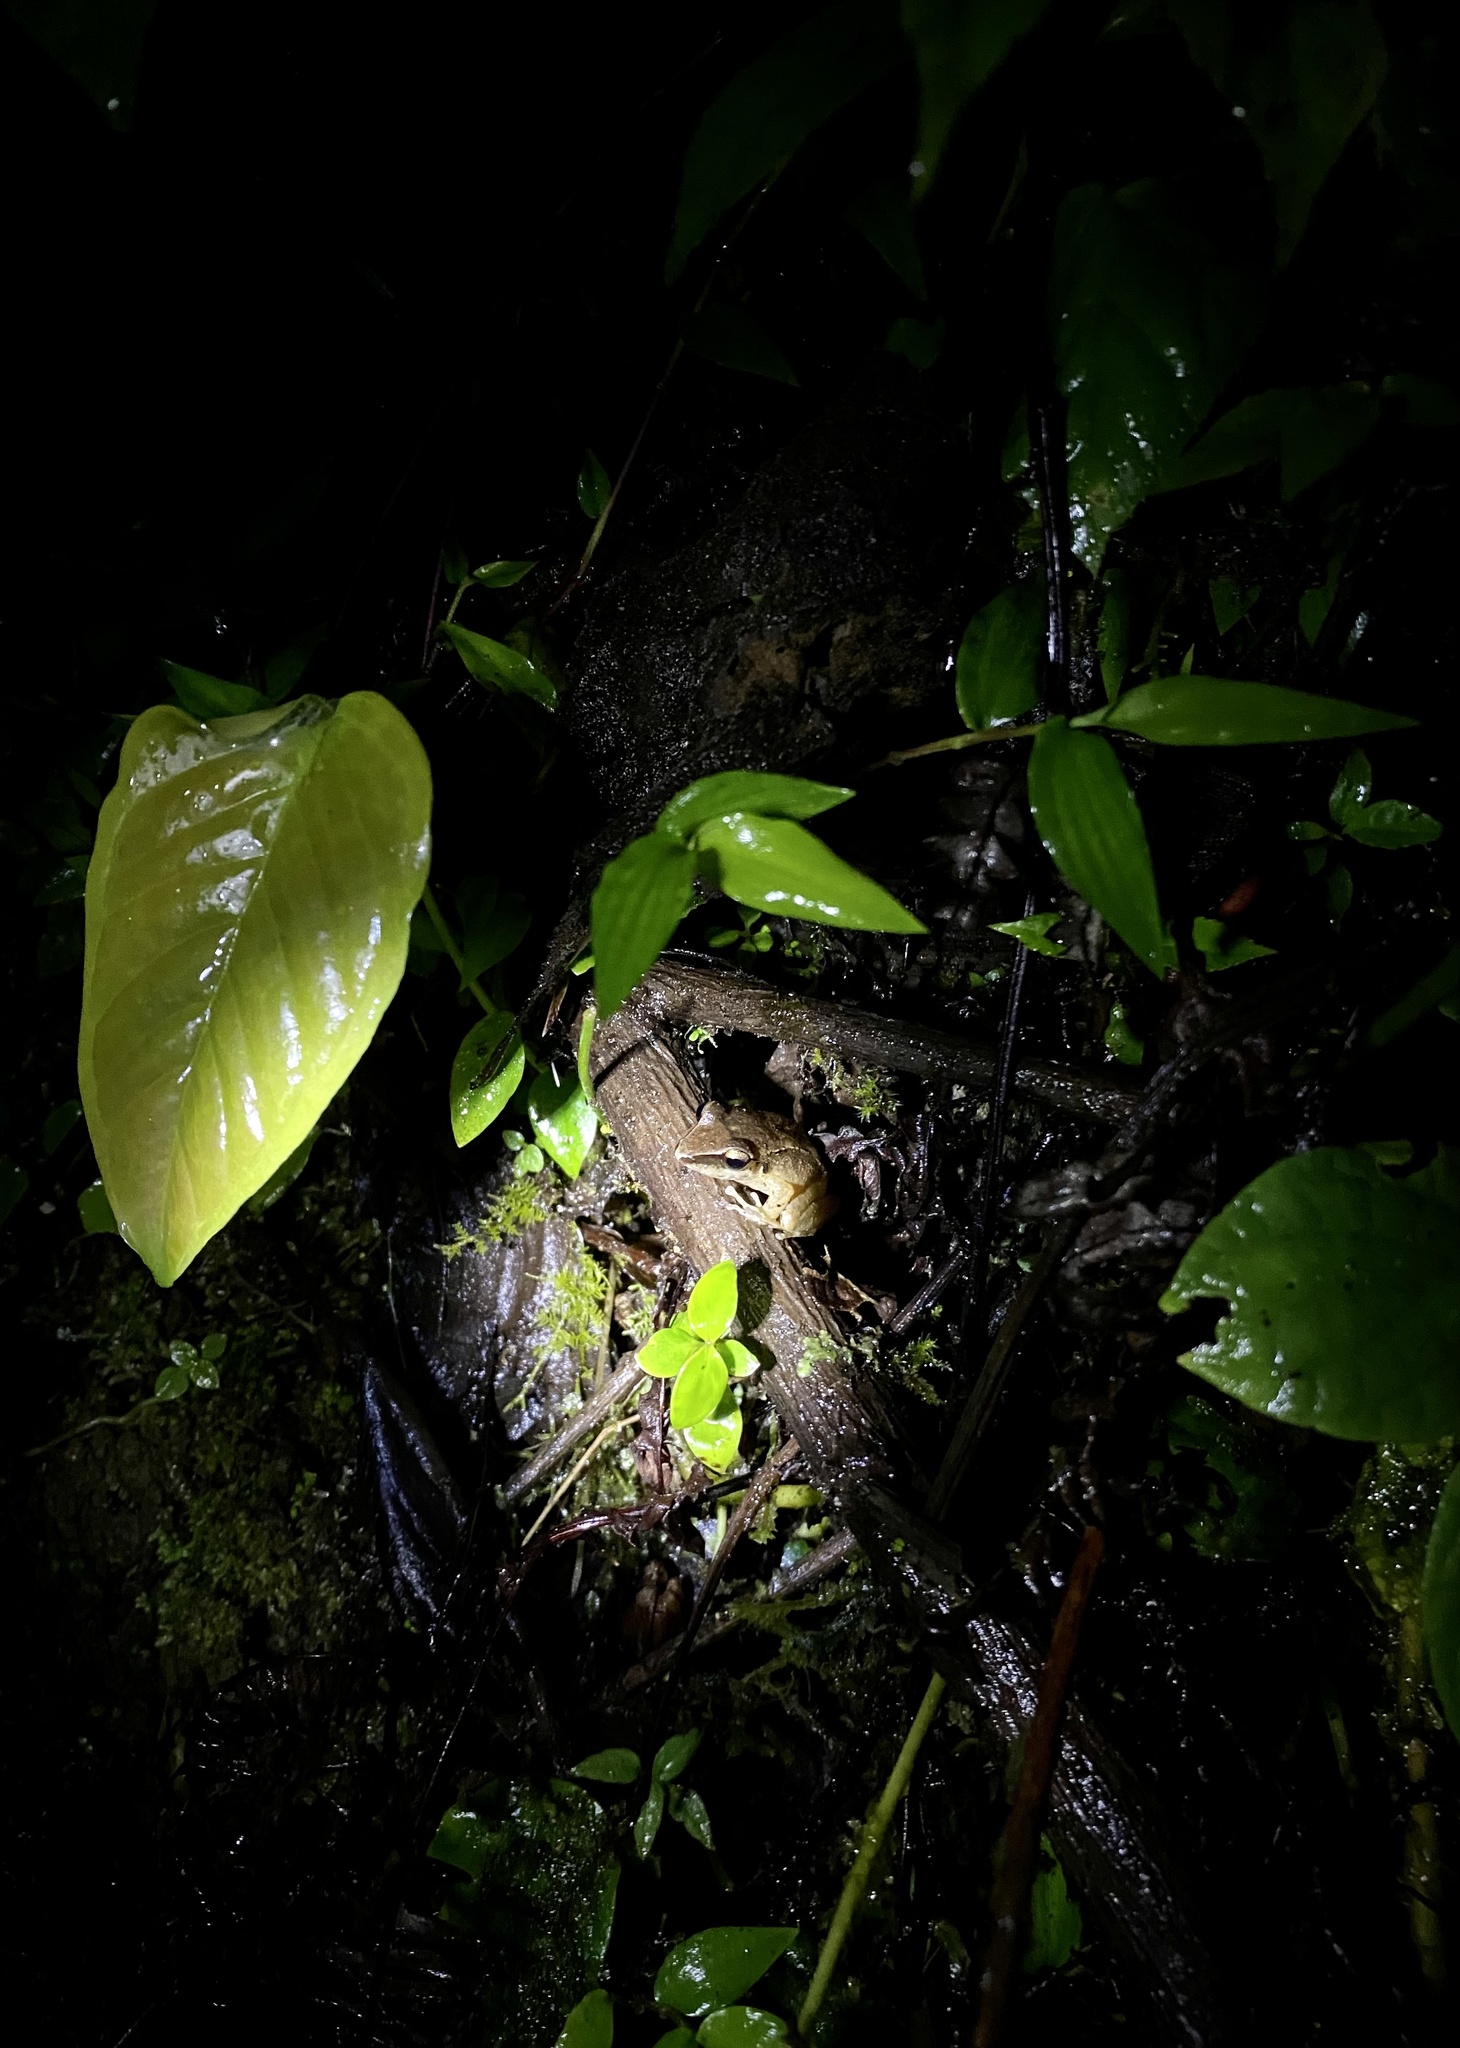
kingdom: Animalia
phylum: Chordata
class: Amphibia
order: Anura
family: Ranidae
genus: Lithobates
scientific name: Lithobates vaillanti
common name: Vaillant's frog
